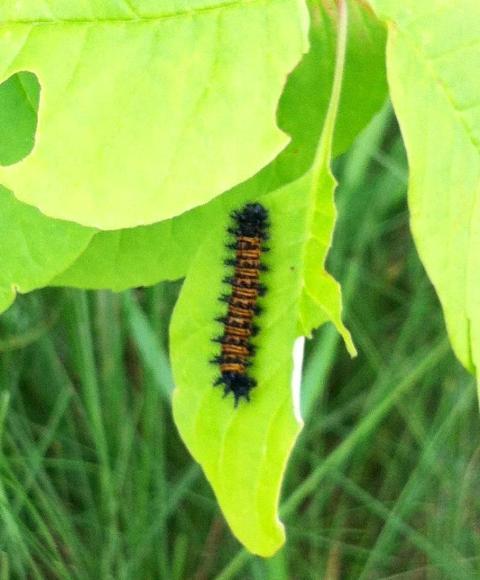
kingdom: Animalia
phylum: Arthropoda
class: Insecta
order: Lepidoptera
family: Nymphalidae
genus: Euphydryas
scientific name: Euphydryas phaeton
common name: Baltimore checkerspot
